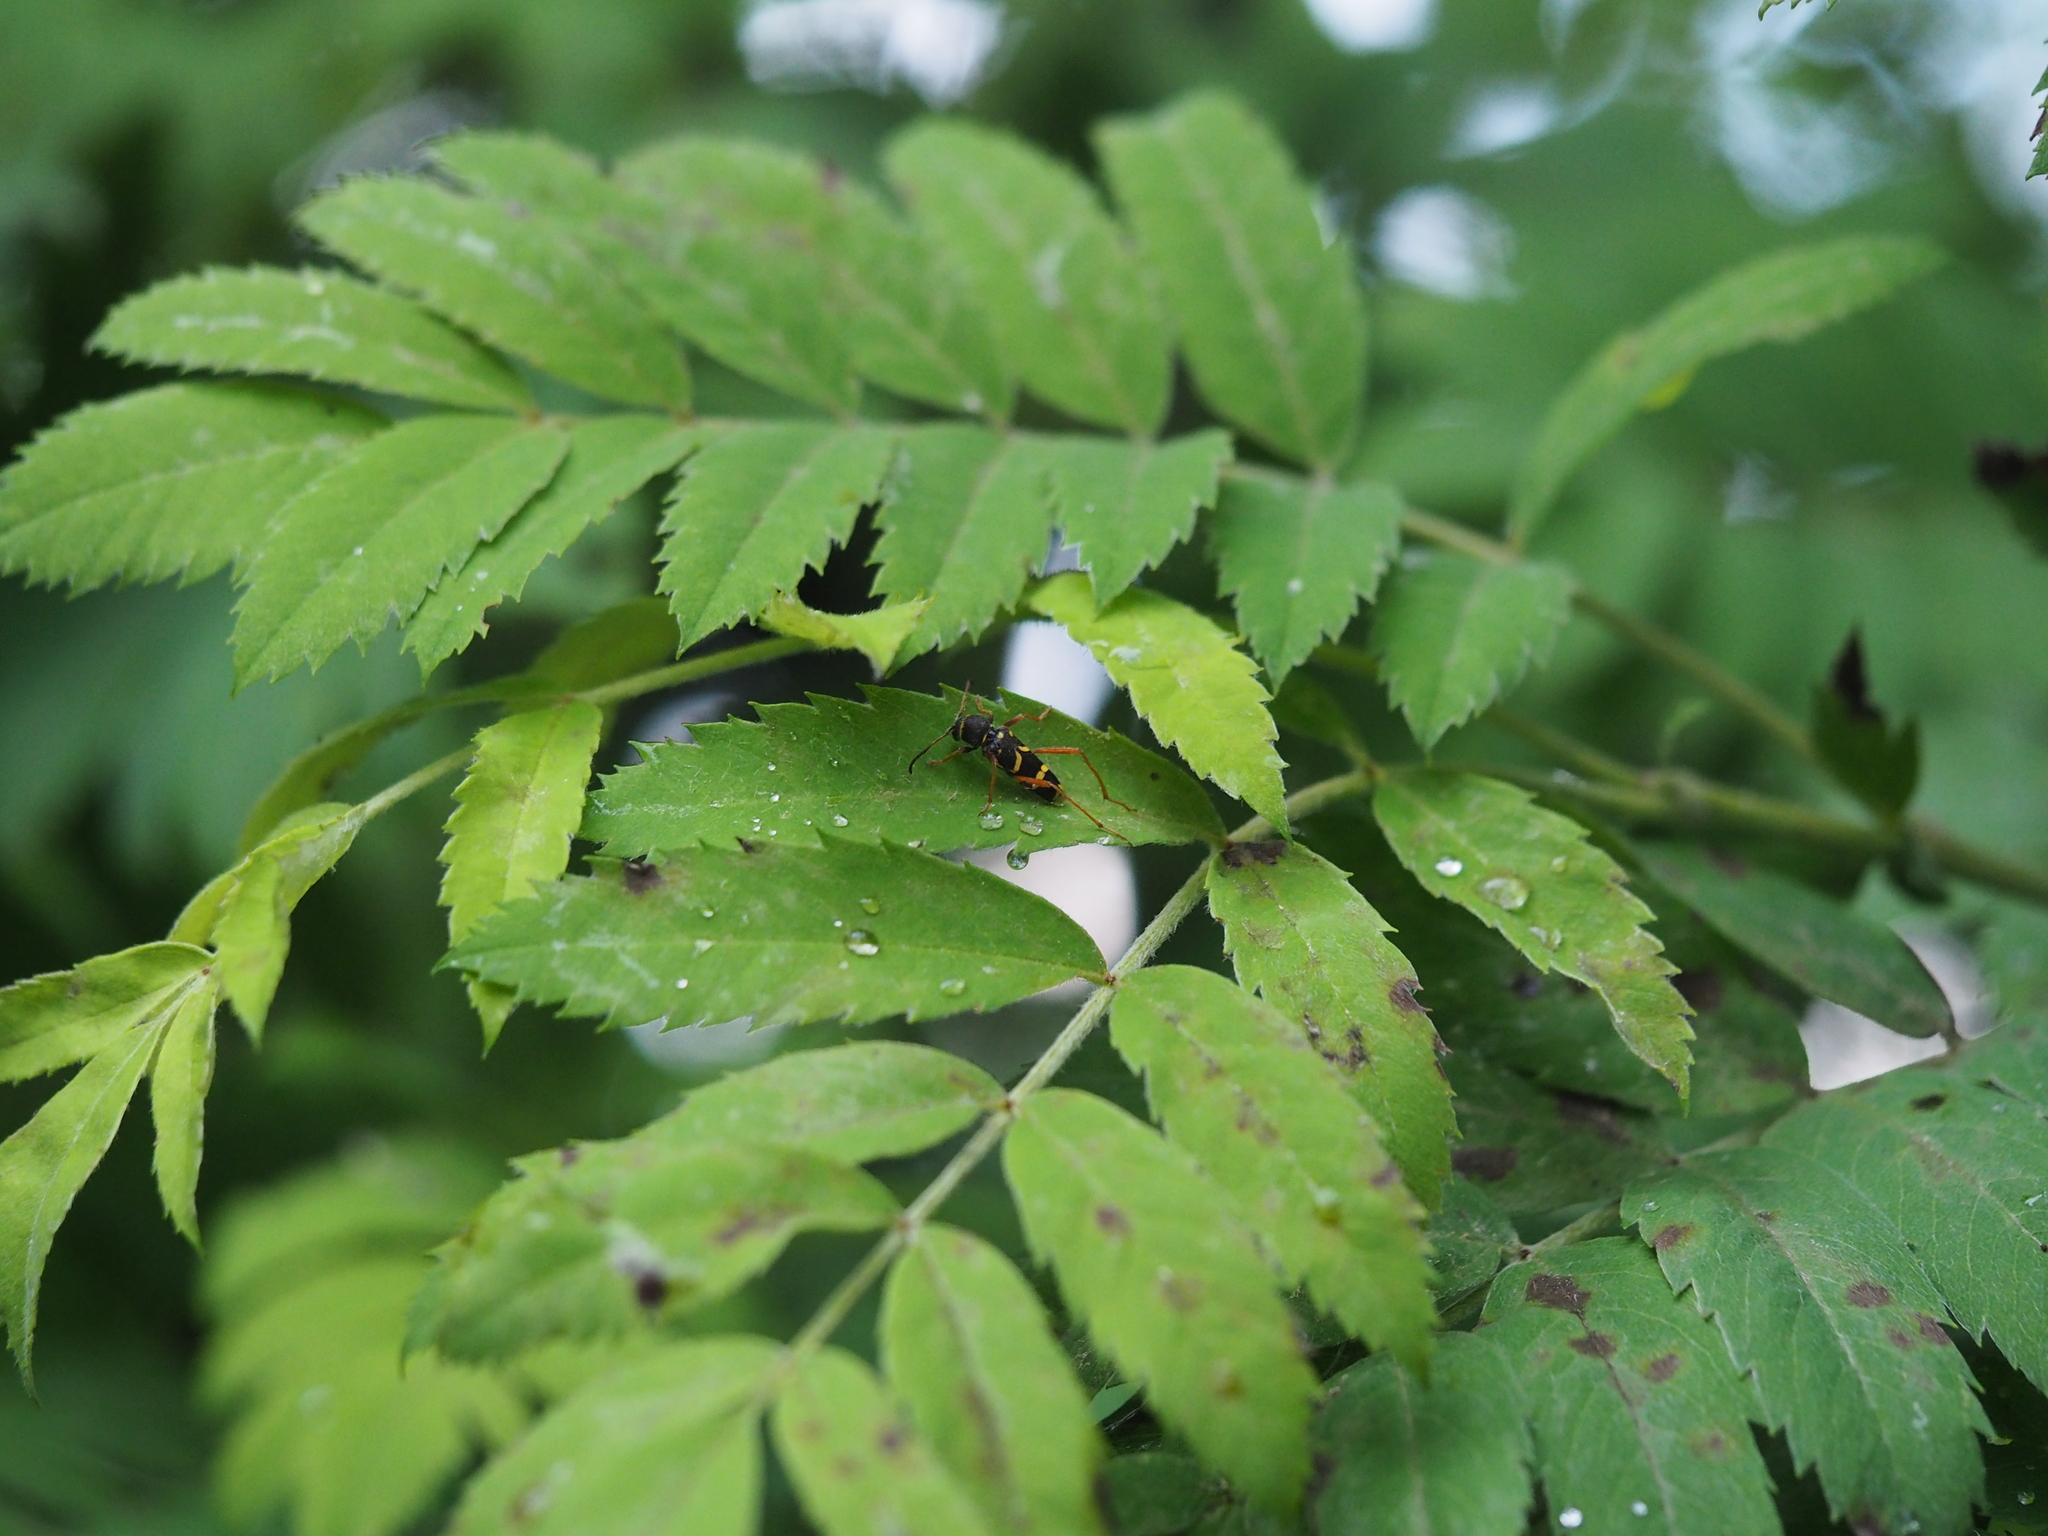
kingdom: Animalia
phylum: Arthropoda
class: Insecta
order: Coleoptera
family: Cerambycidae
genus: Clytus
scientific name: Clytus arietis
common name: Wasp beetle
